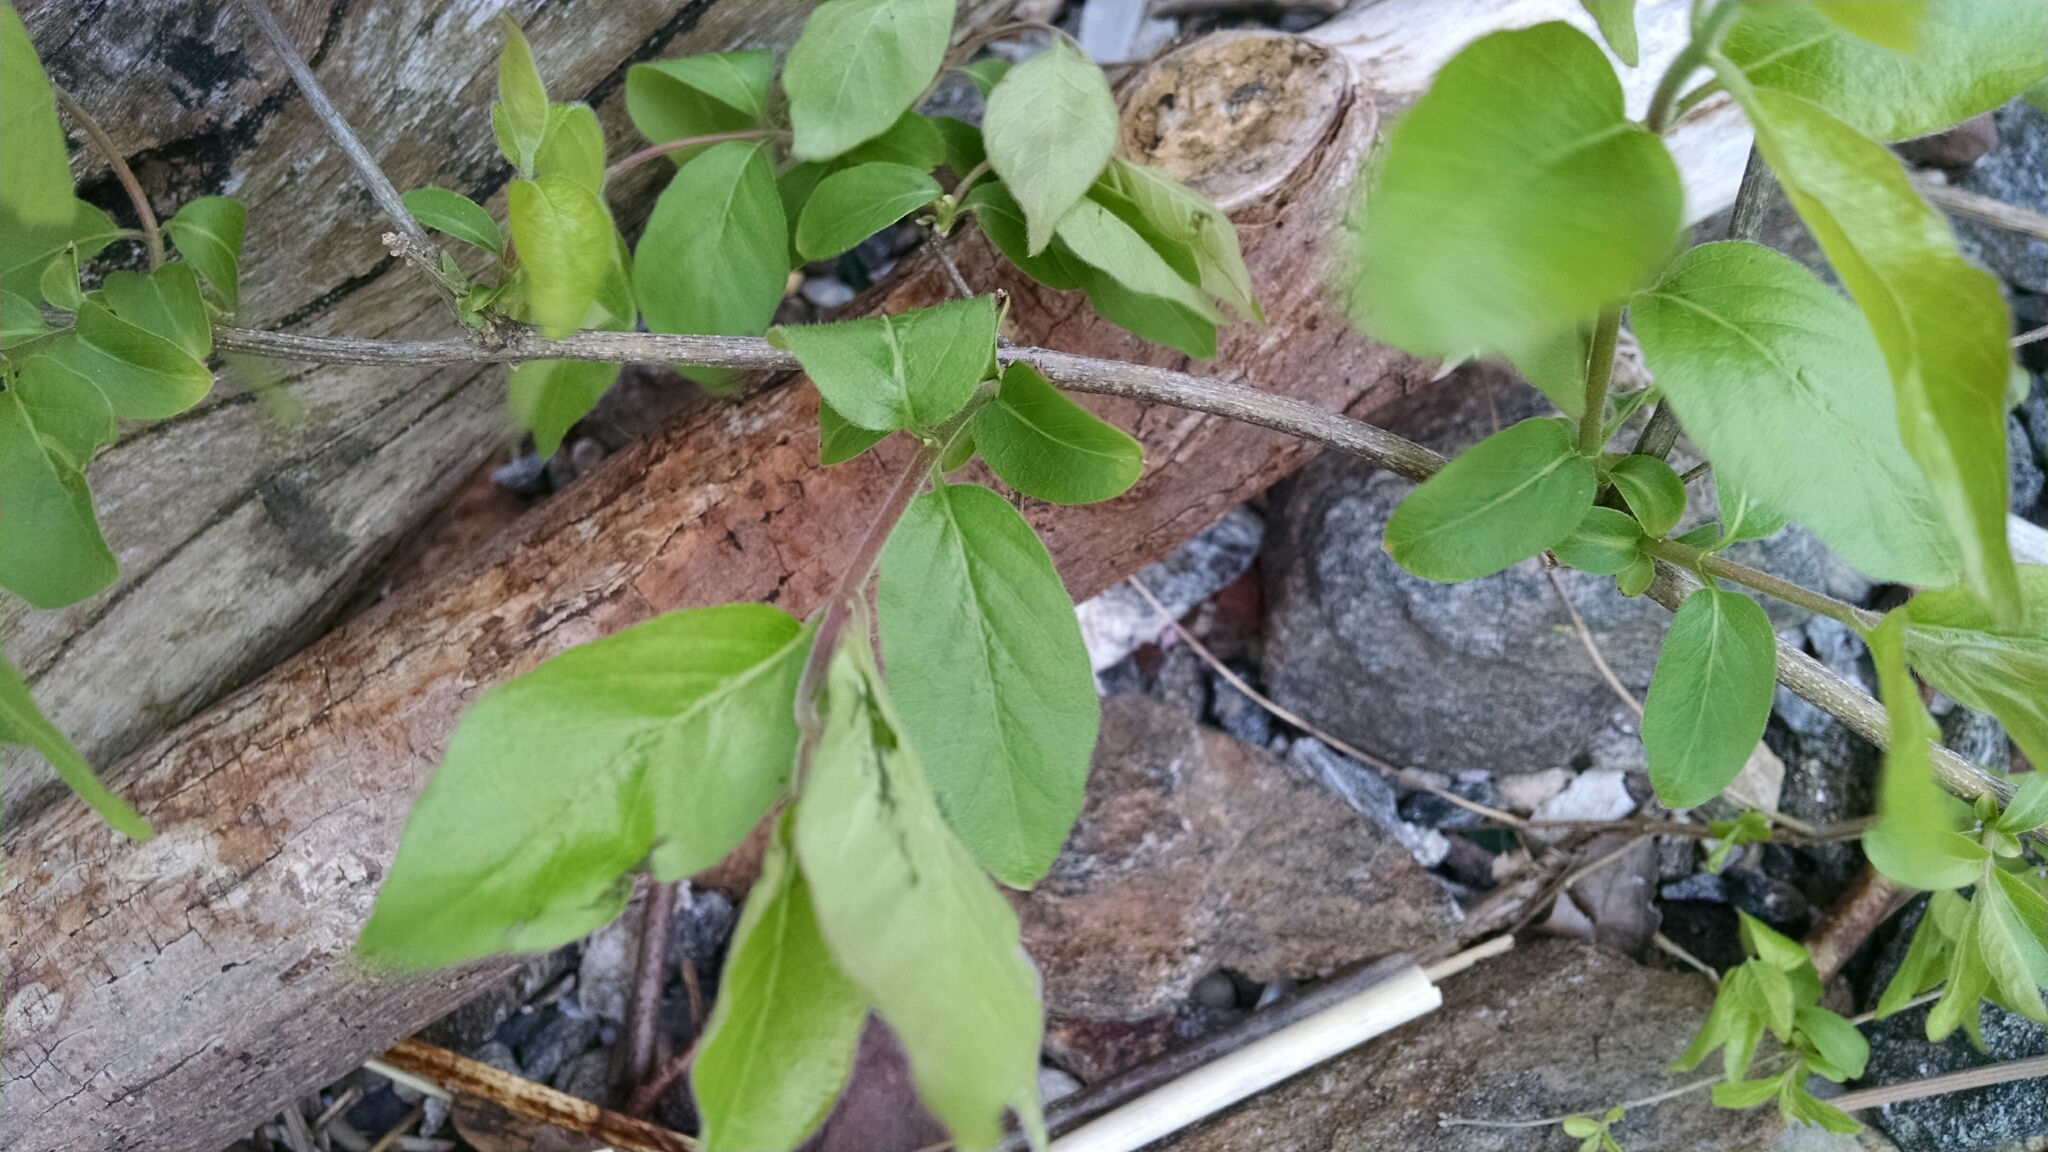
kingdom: Plantae
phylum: Tracheophyta
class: Magnoliopsida
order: Dipsacales
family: Caprifoliaceae
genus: Lonicera
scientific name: Lonicera maackii
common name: Amur honeysuckle
